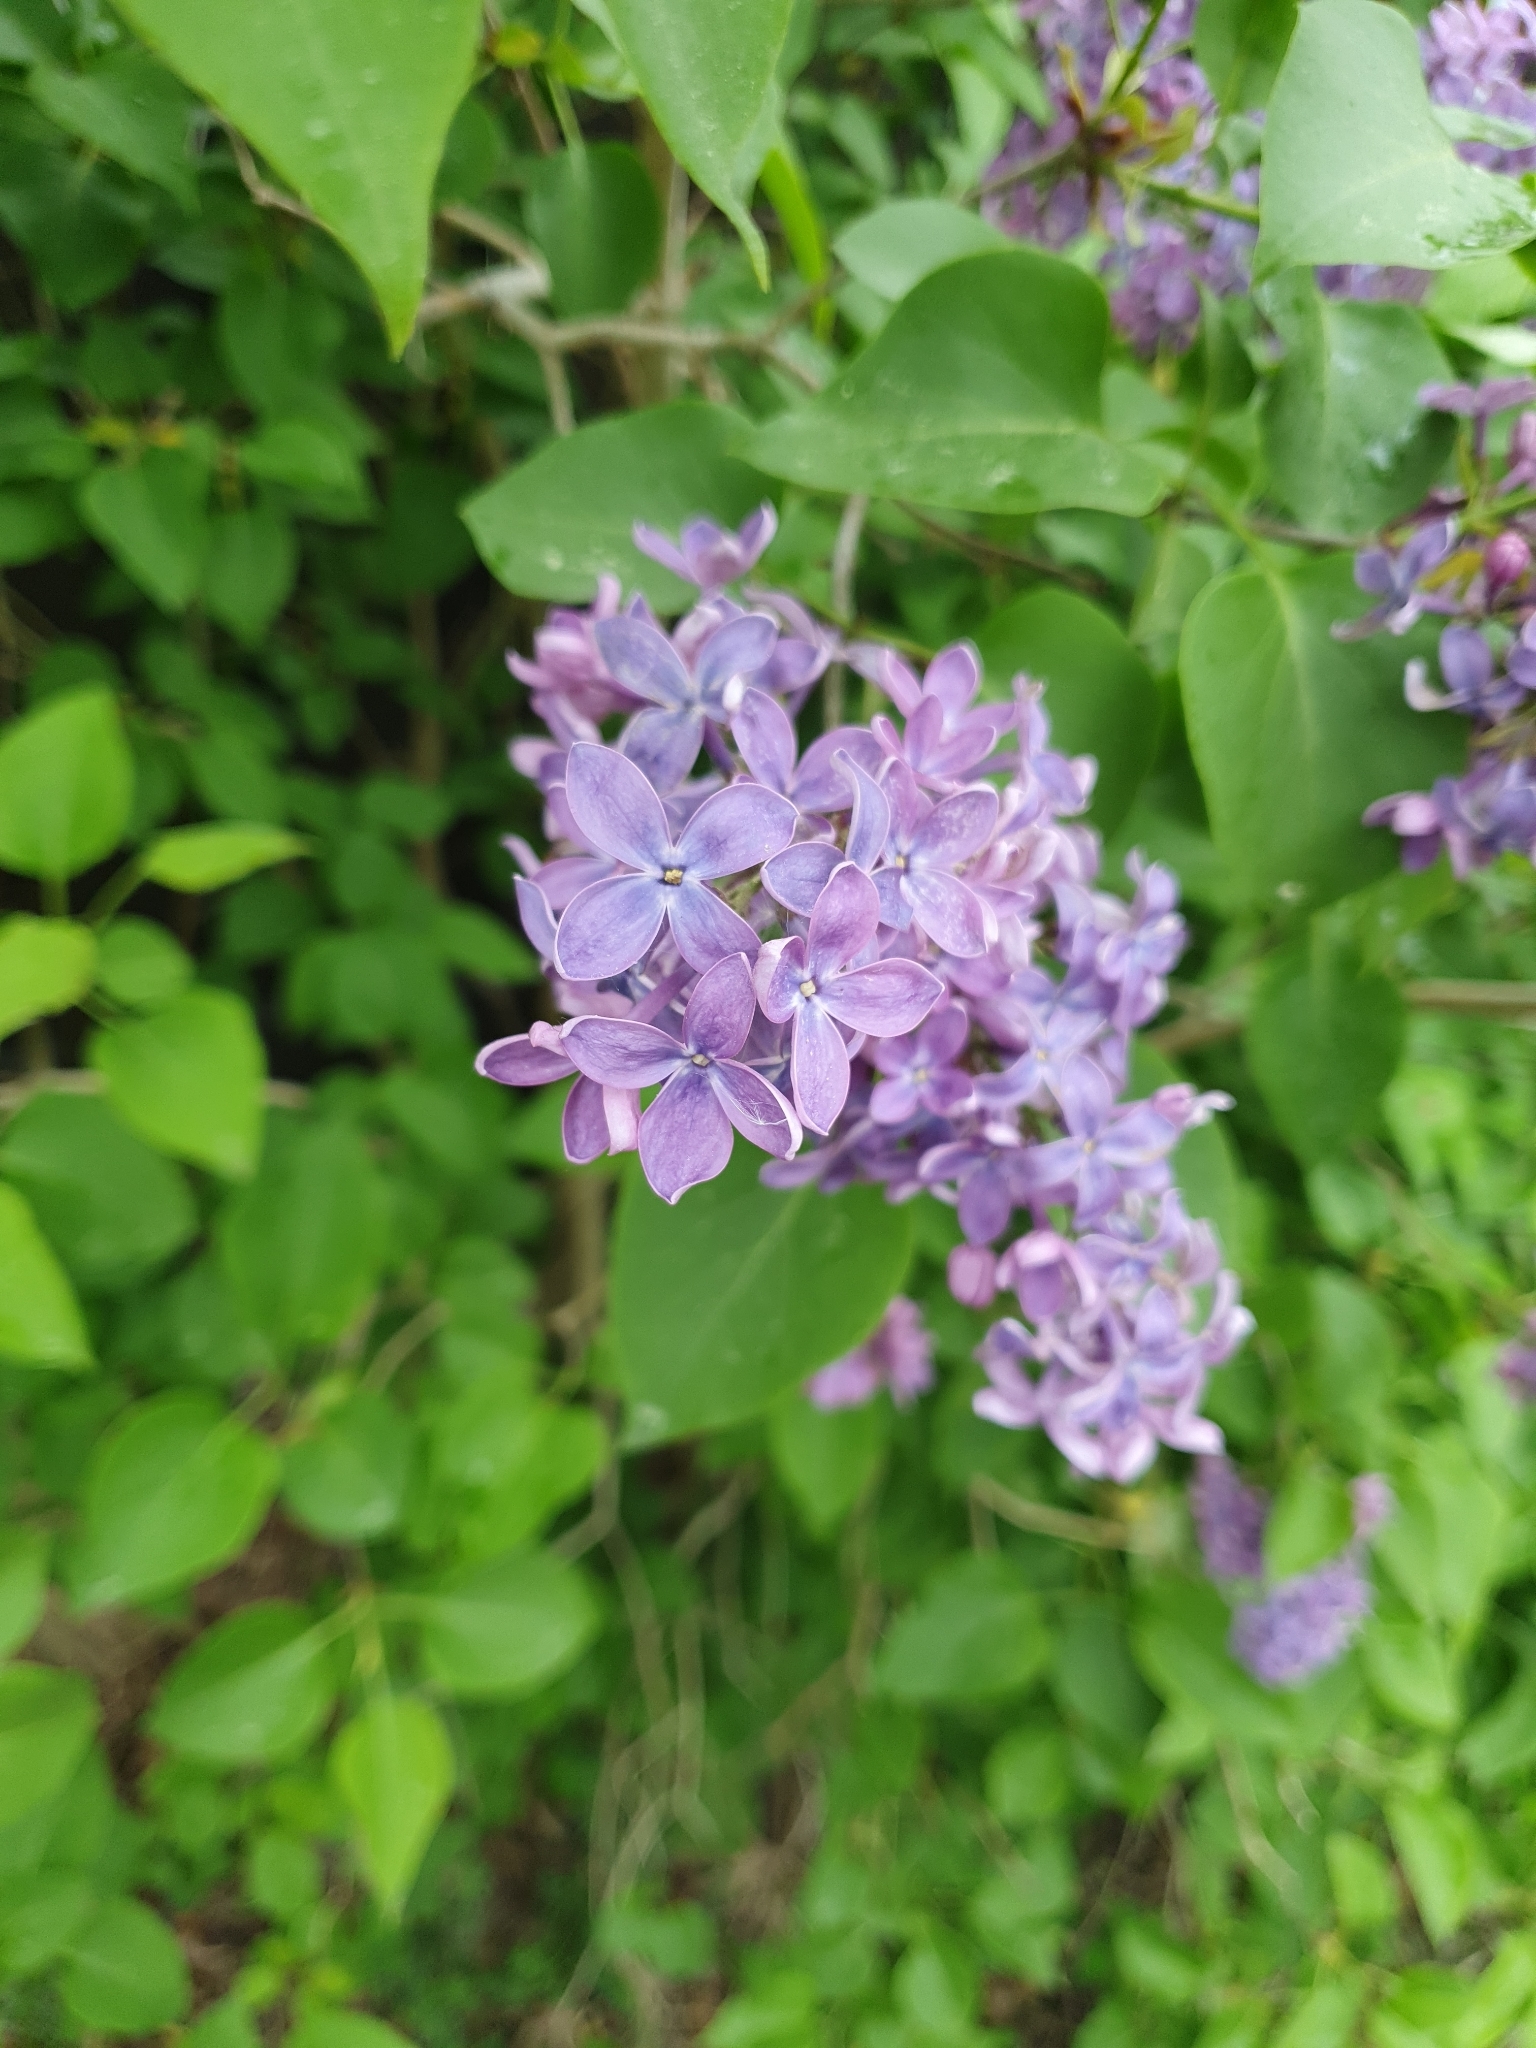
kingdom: Plantae
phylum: Tracheophyta
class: Magnoliopsida
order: Lamiales
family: Oleaceae
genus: Syringa
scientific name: Syringa vulgaris
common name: Common lilac
